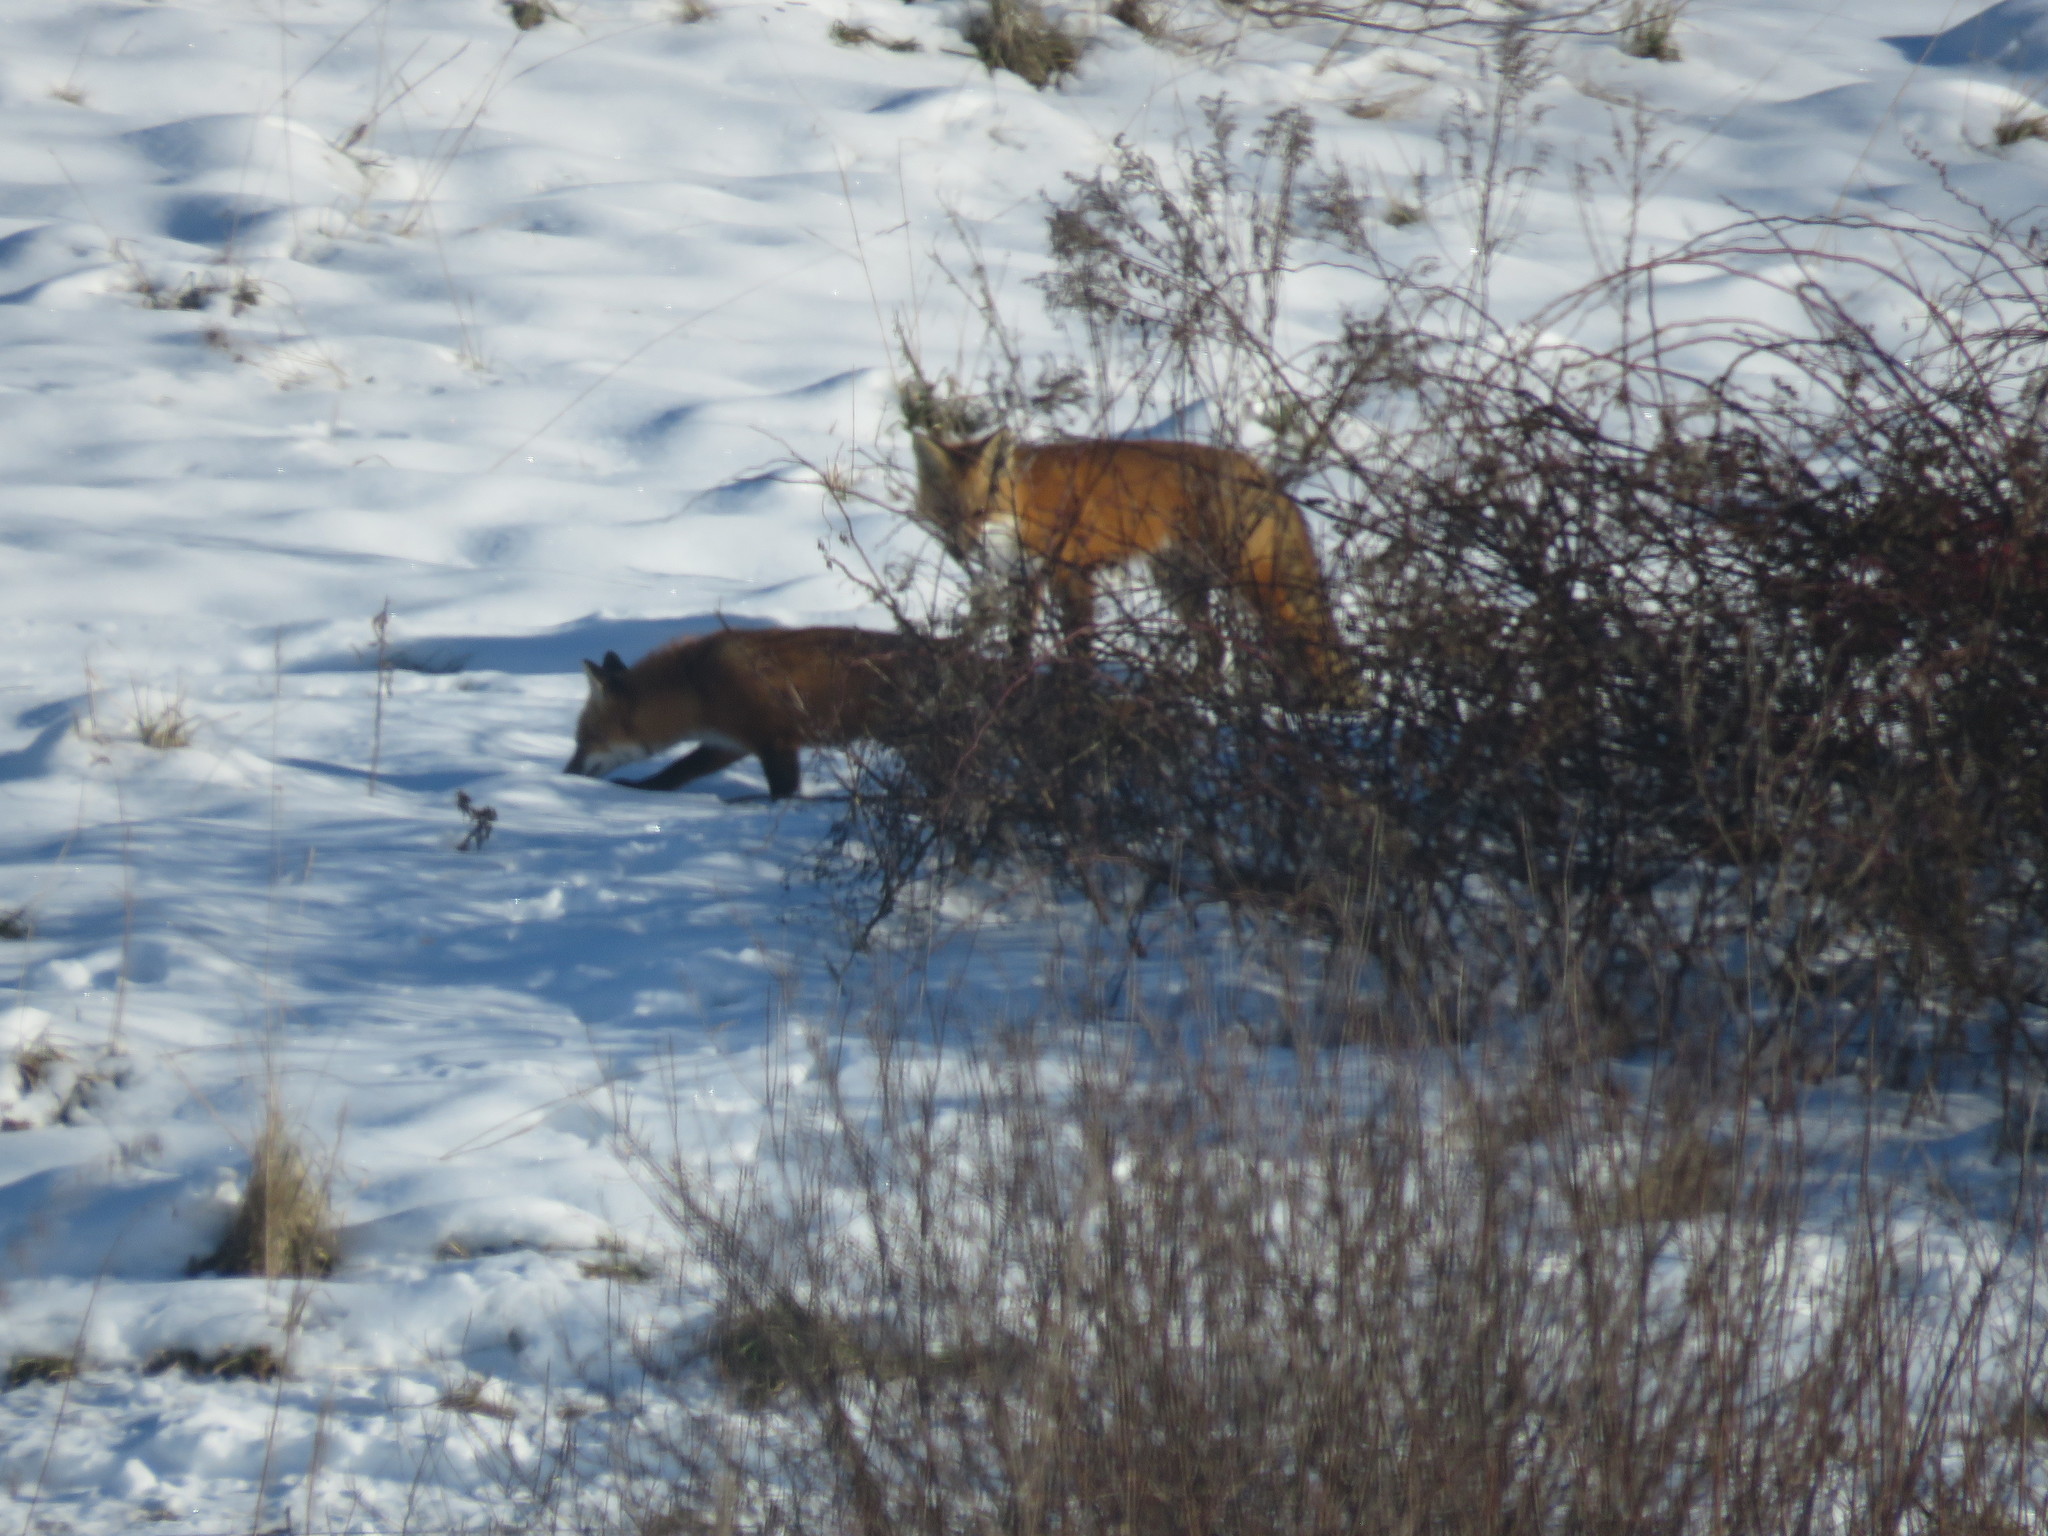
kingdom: Animalia
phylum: Chordata
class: Mammalia
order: Carnivora
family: Canidae
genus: Vulpes
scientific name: Vulpes vulpes
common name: Red fox
